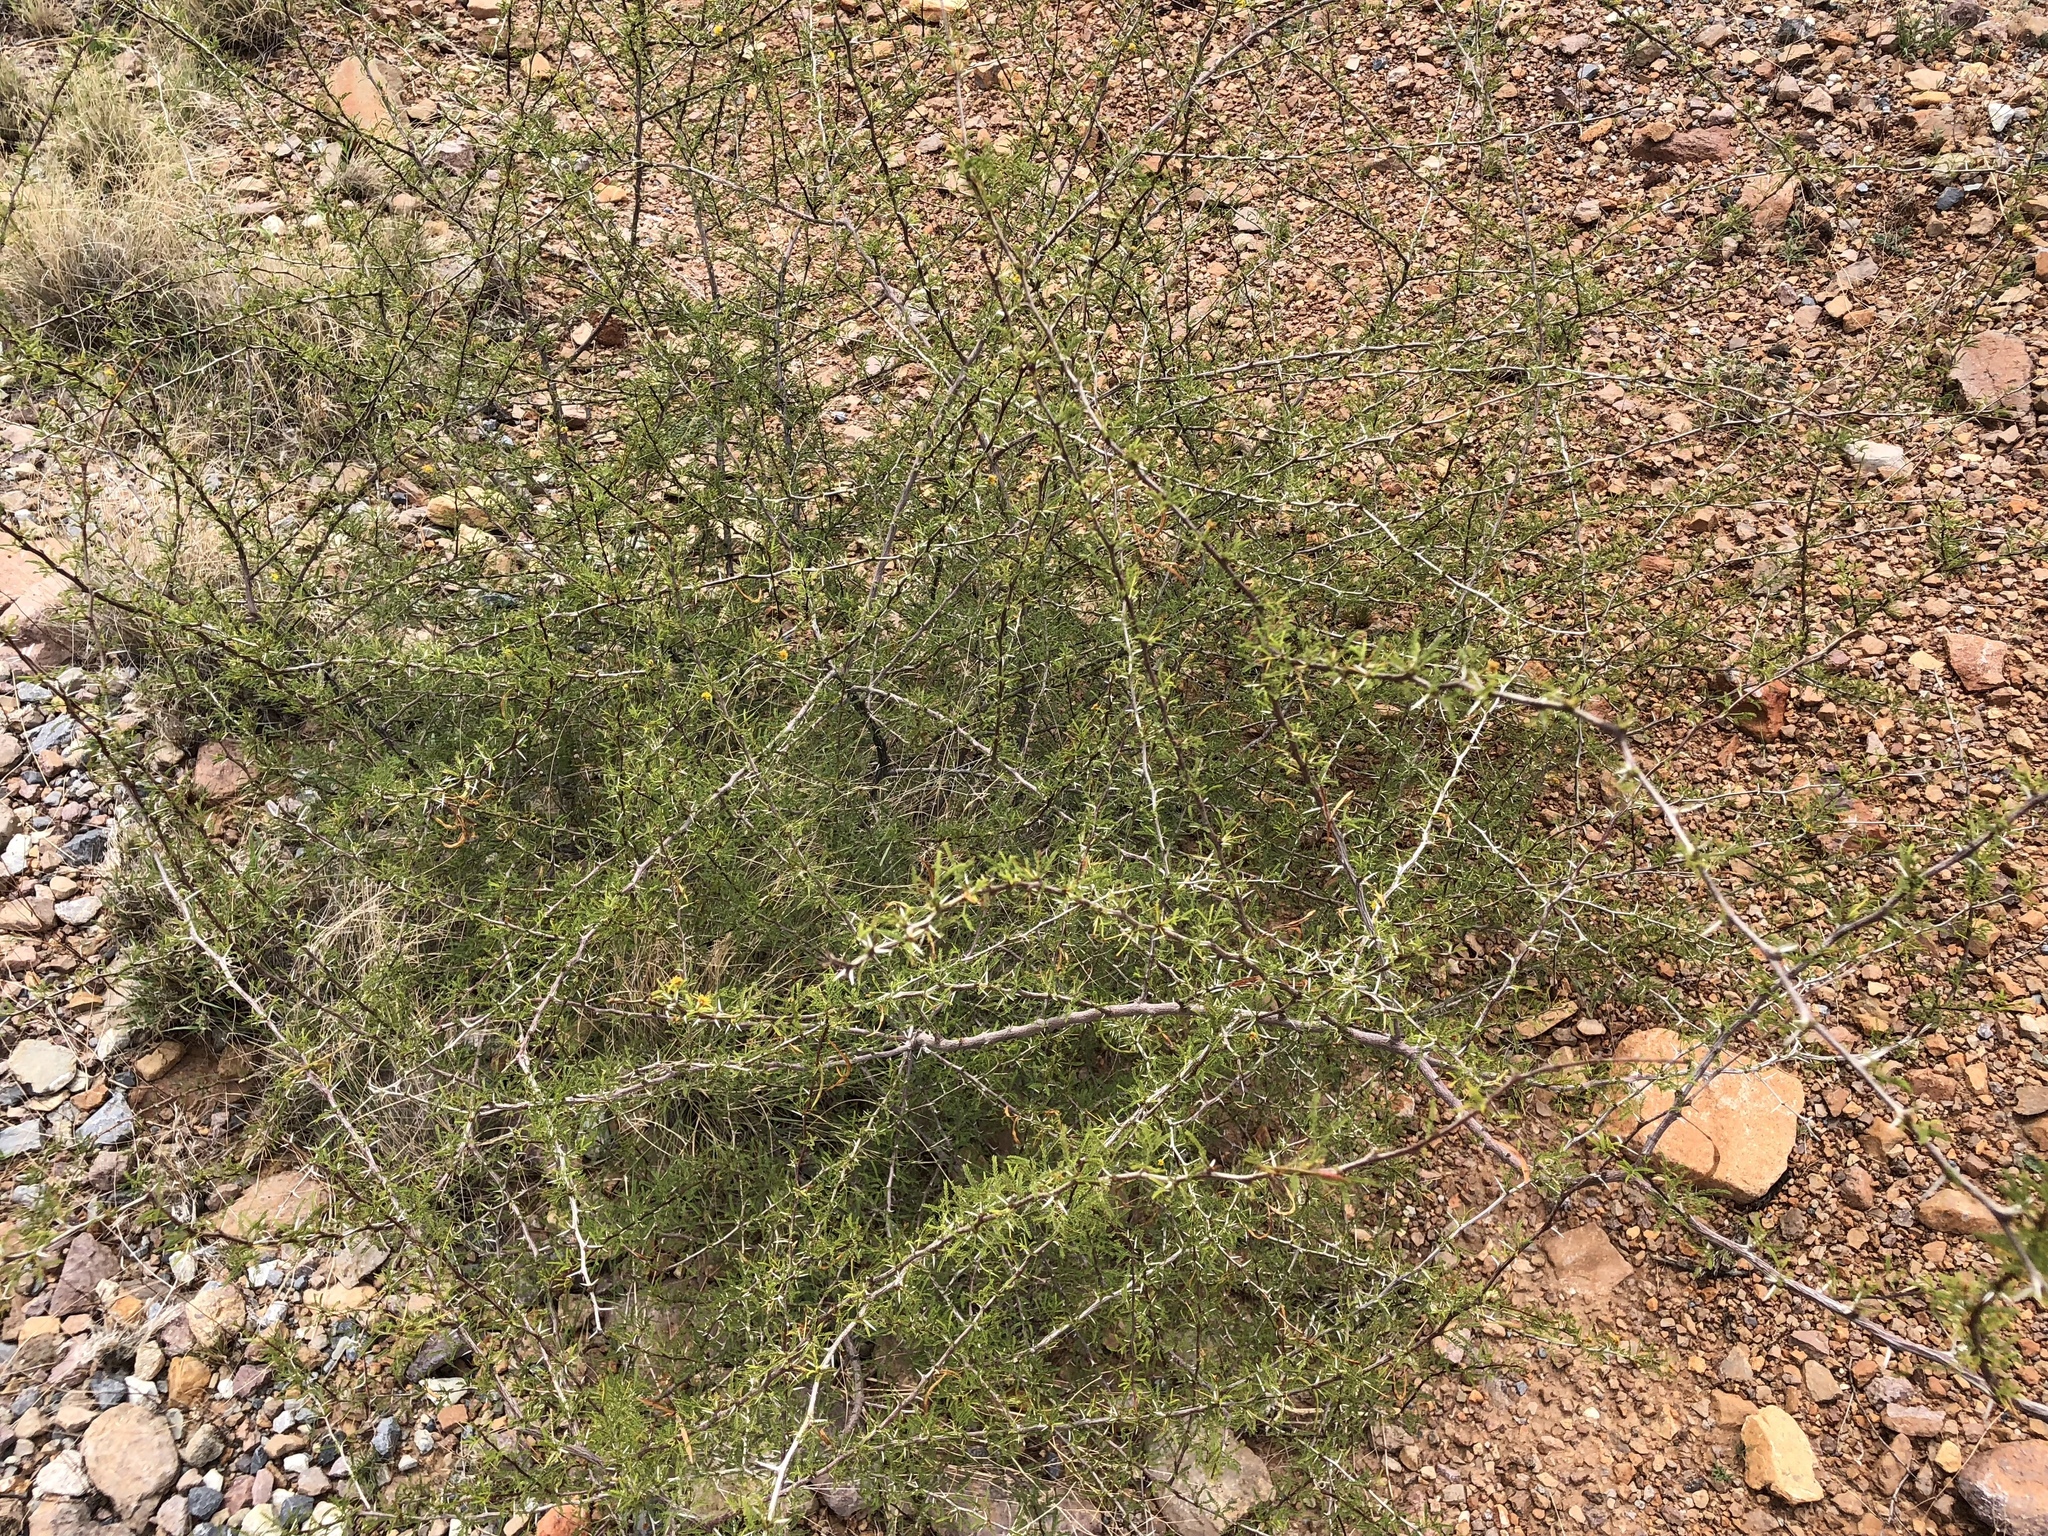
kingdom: Plantae
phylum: Tracheophyta
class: Magnoliopsida
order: Fabales
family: Fabaceae
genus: Vachellia
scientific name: Vachellia constricta
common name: Mescat acacia
